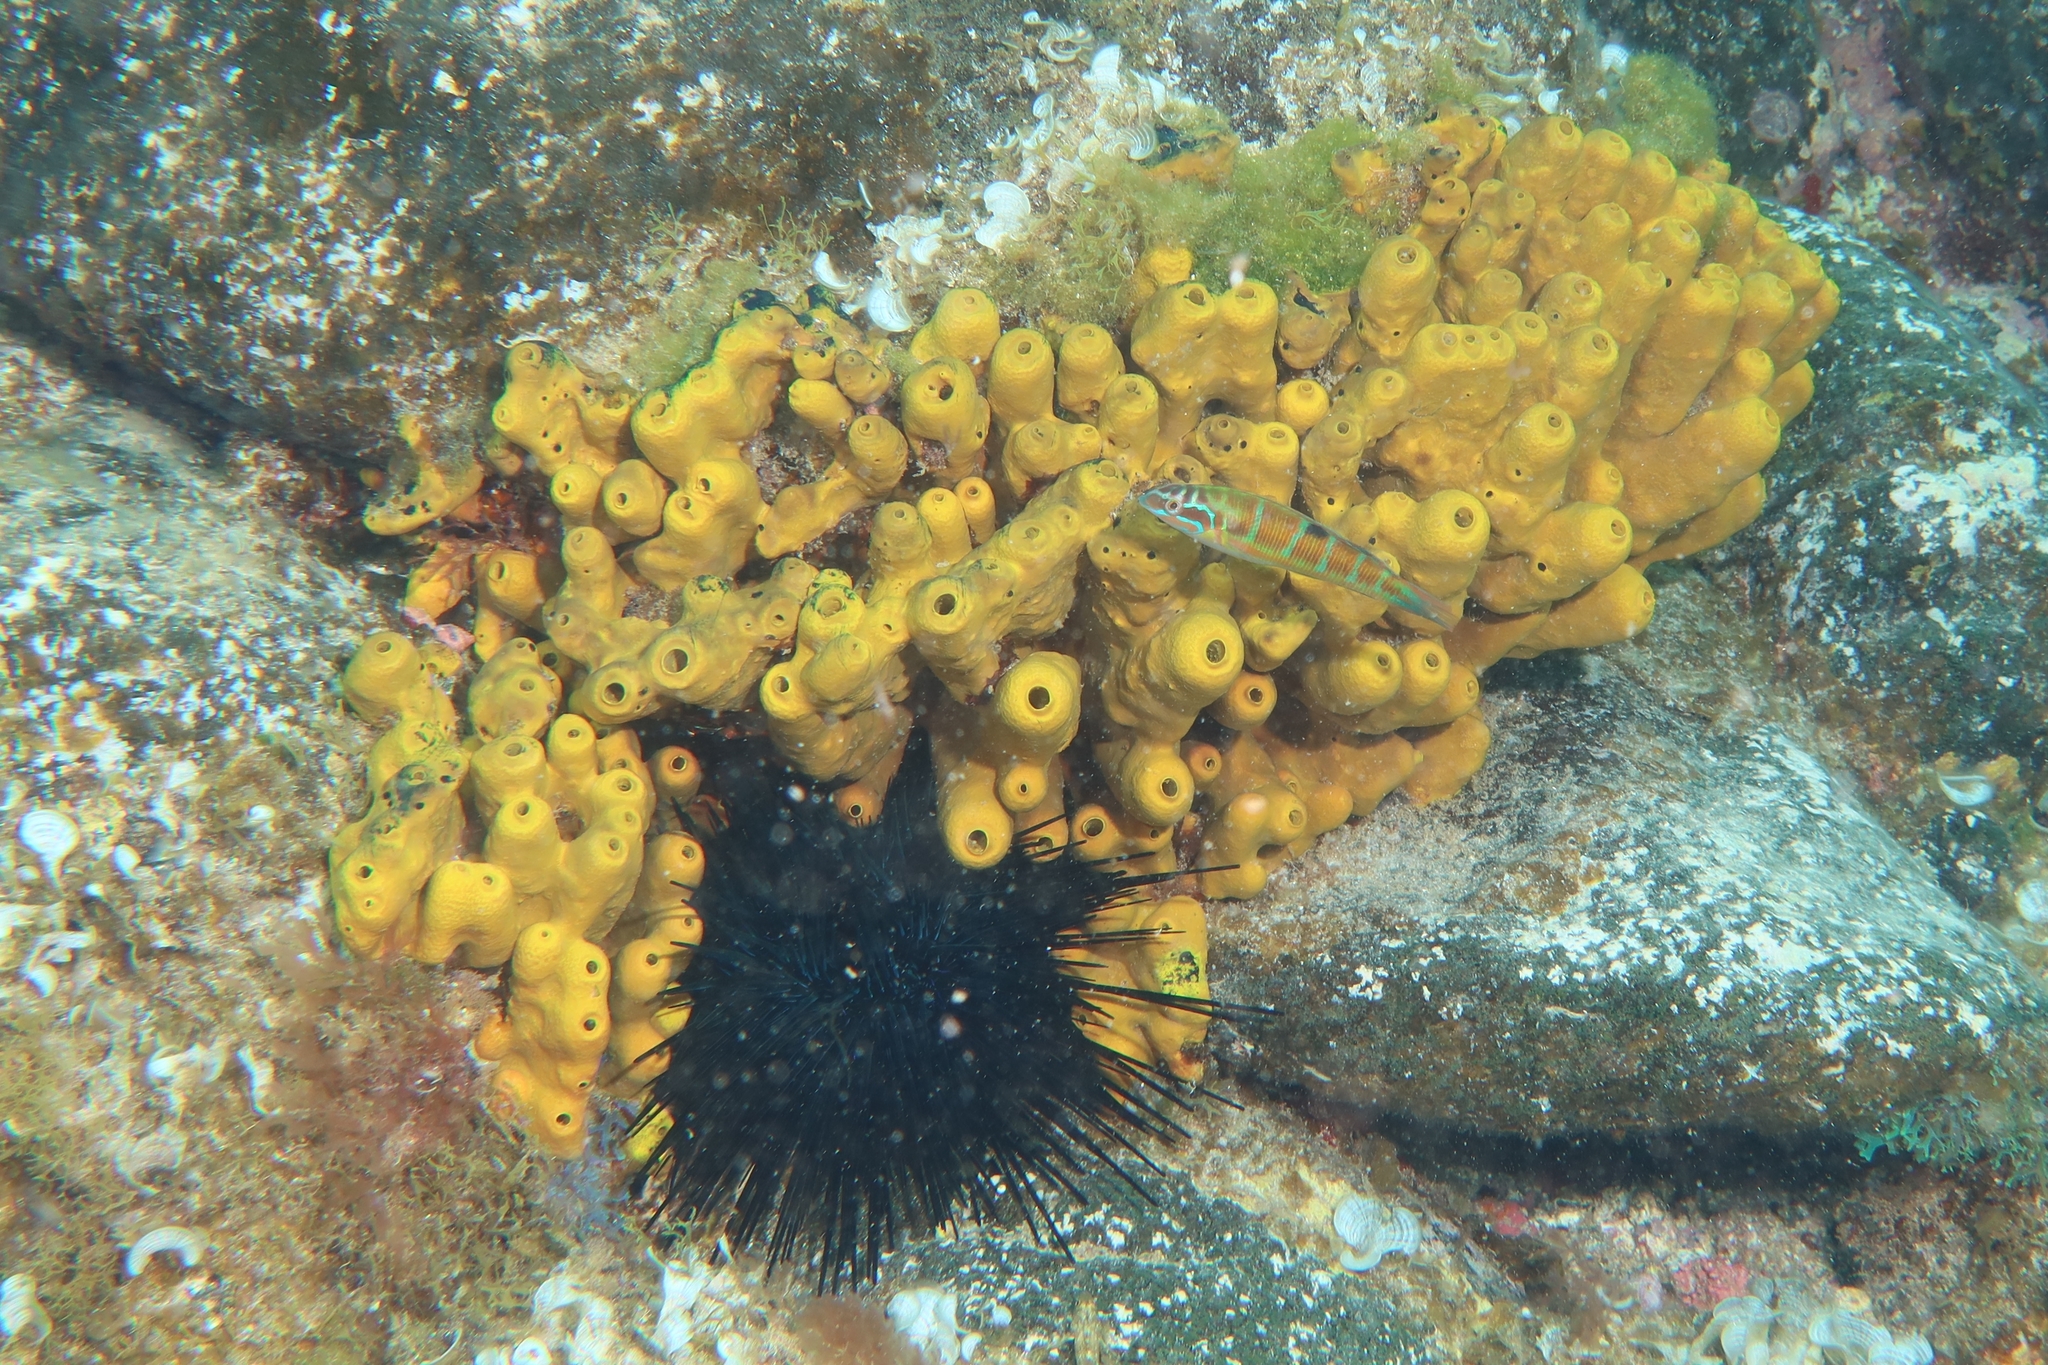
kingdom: Animalia
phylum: Porifera
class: Demospongiae
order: Verongiida
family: Aplysinidae
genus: Aplysina
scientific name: Aplysina aerophoba
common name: Aureate sponge
